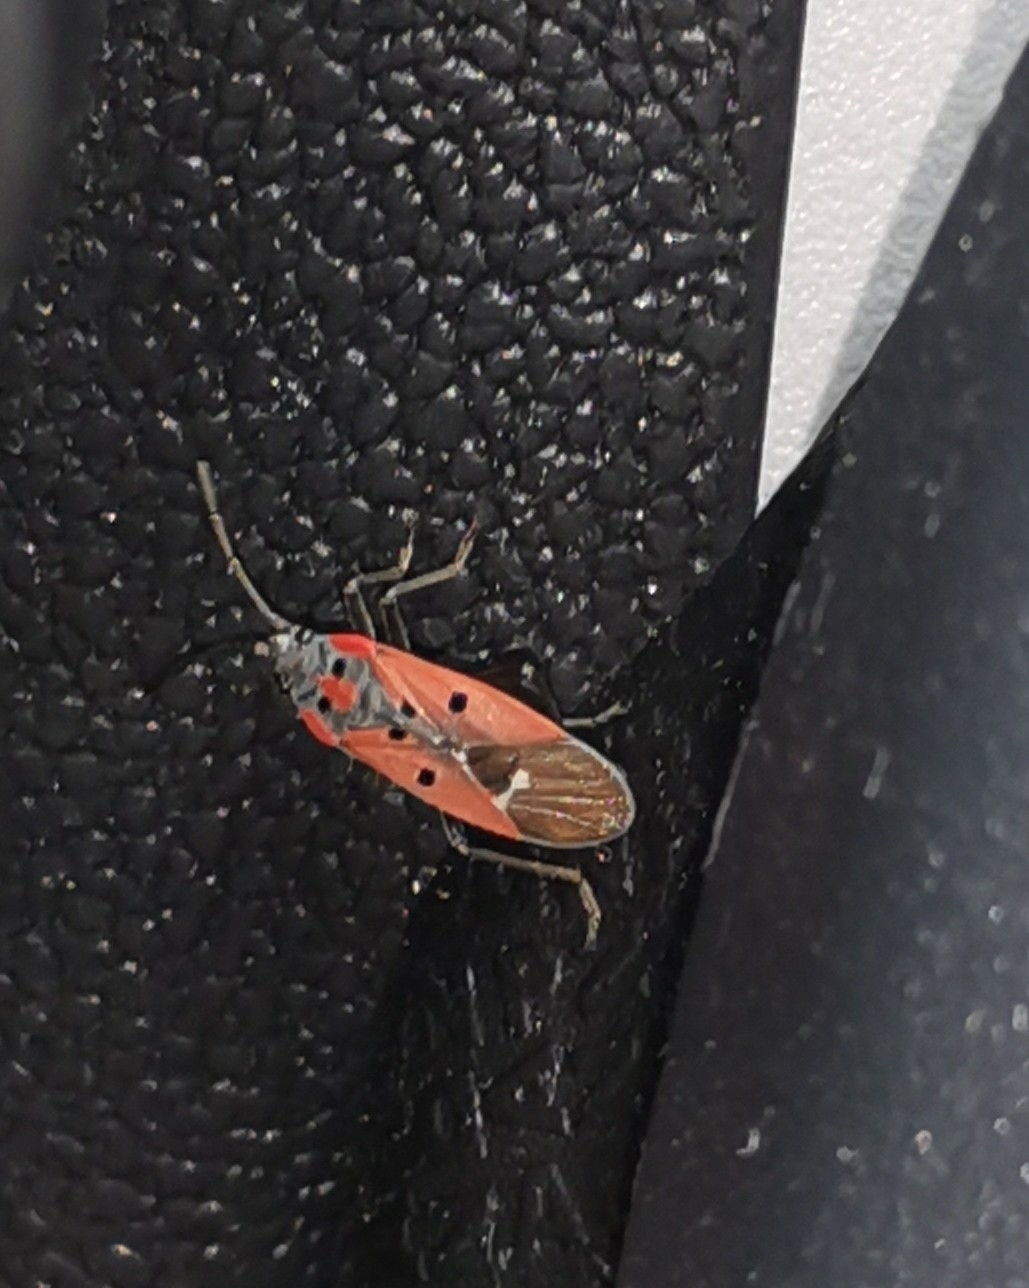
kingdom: Animalia
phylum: Arthropoda
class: Insecta
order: Hemiptera
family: Lygaeidae
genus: Lygaeus
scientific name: Lygaeus creticus
